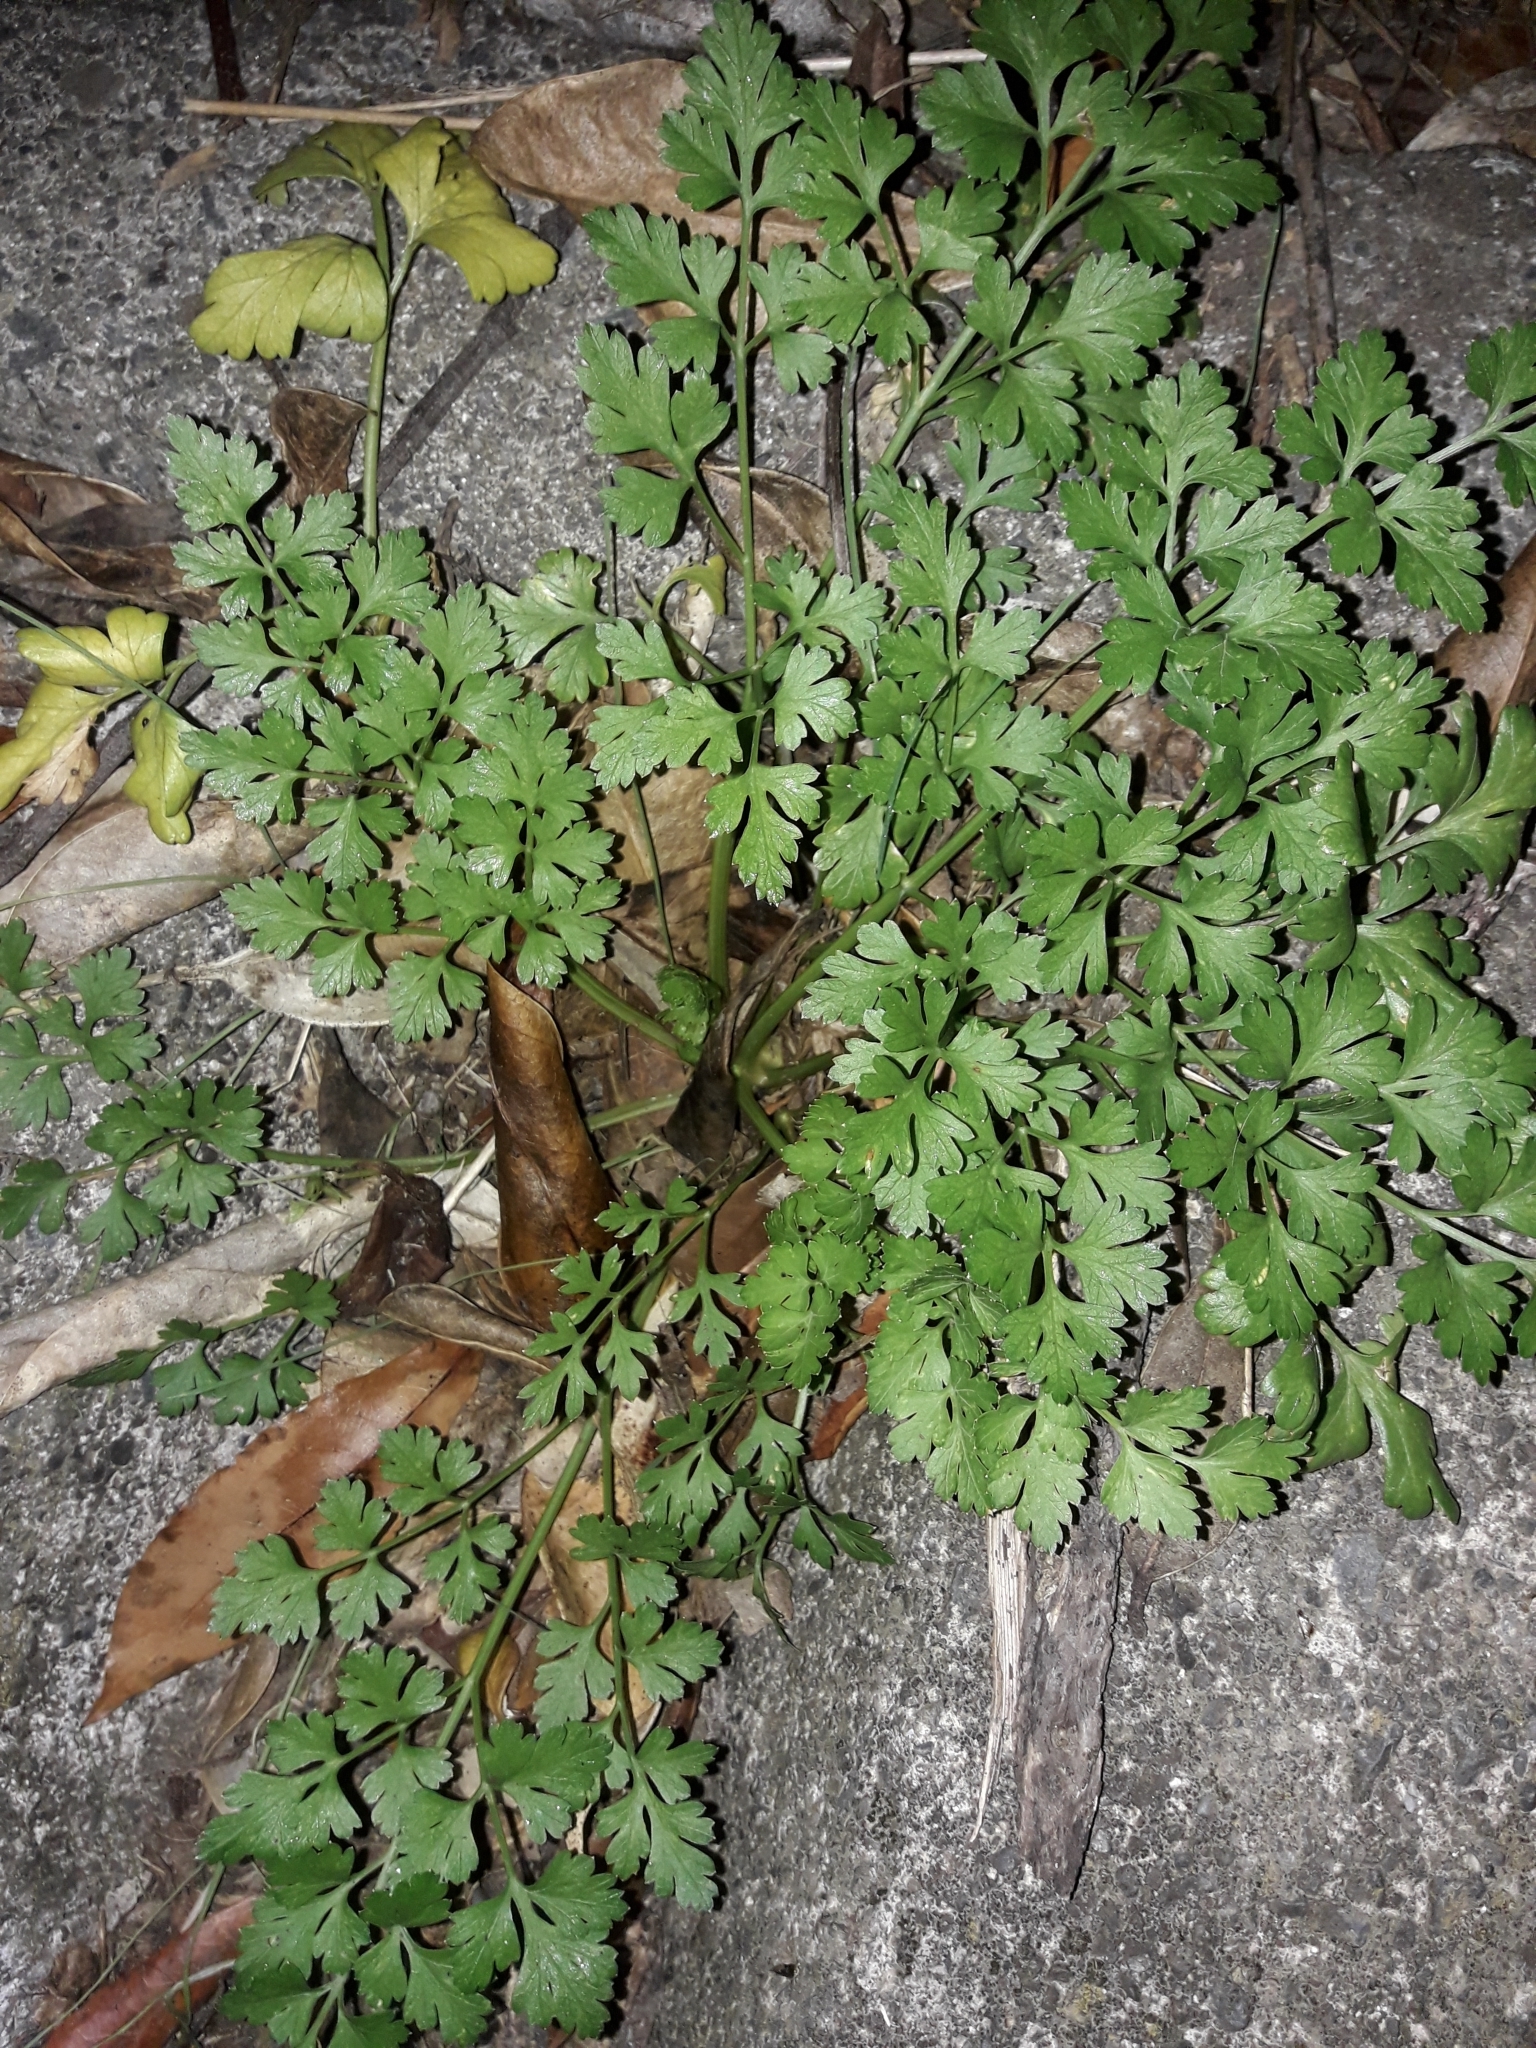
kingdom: Plantae
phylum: Tracheophyta
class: Magnoliopsida
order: Apiales
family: Apiaceae
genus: Petroselinum
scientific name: Petroselinum crispum
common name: Parsley
